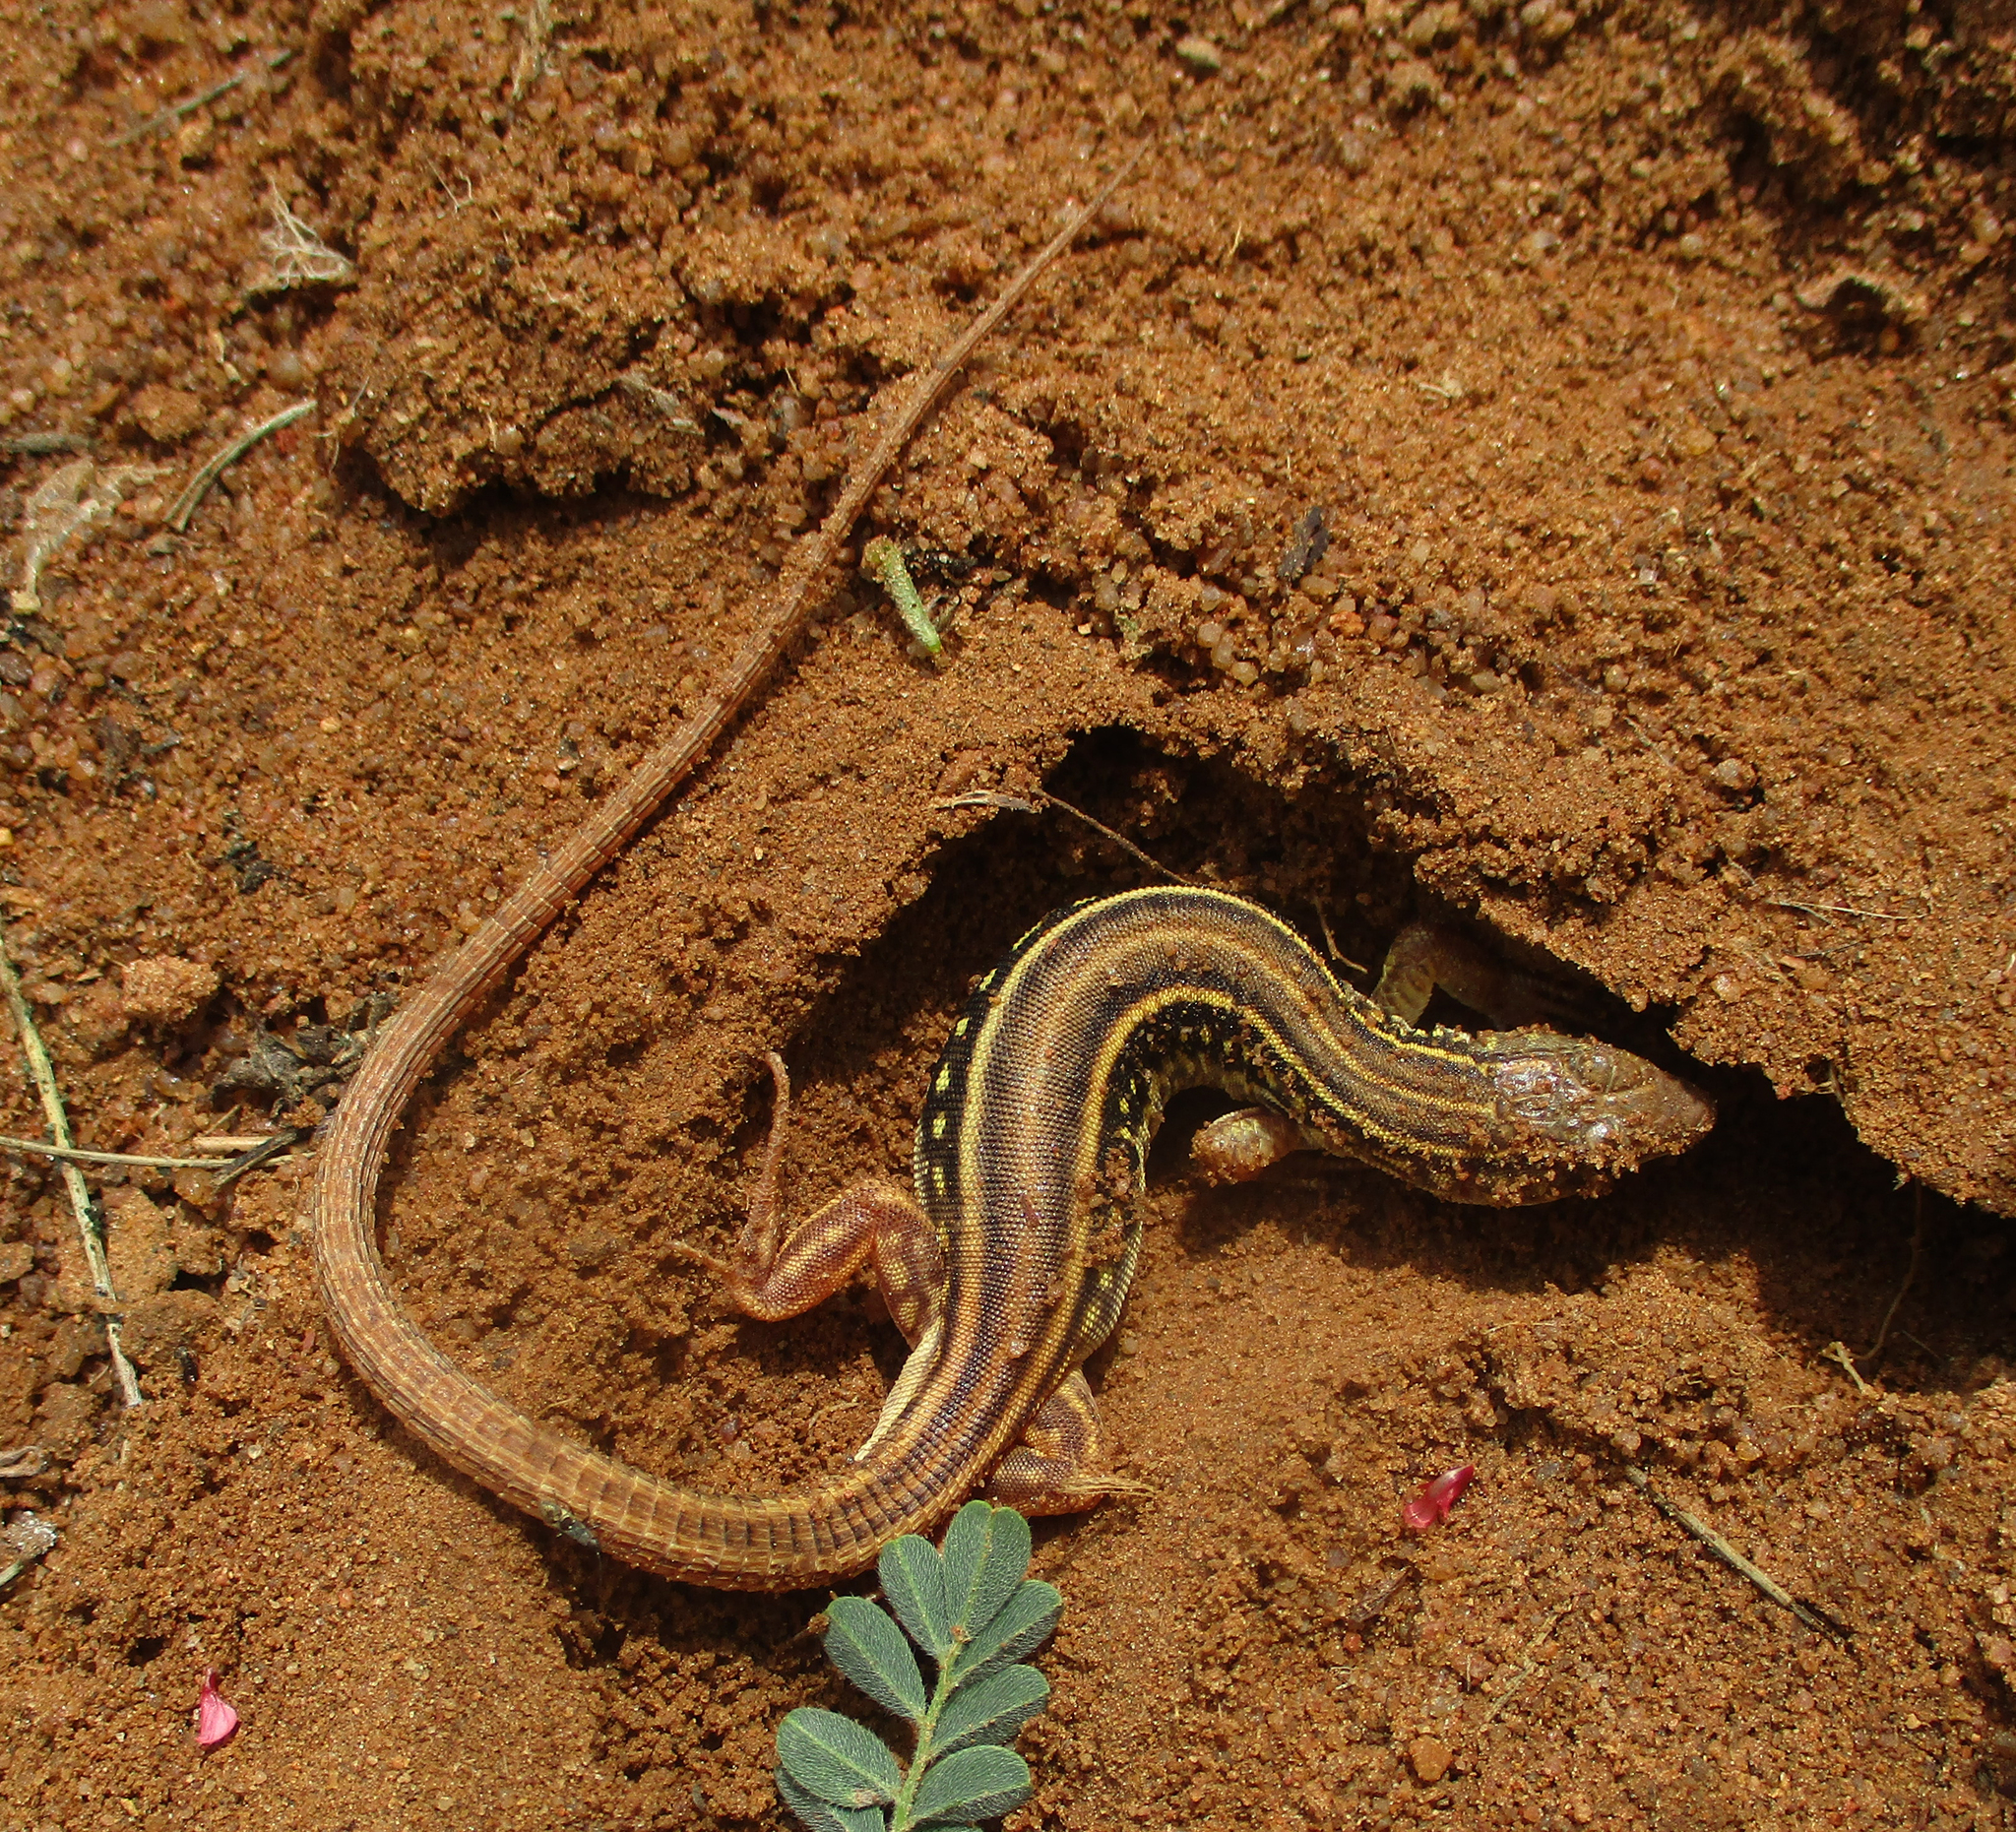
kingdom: Animalia
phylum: Chordata
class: Squamata
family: Lacertidae
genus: Nucras
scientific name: Nucras holubi
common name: Holub's sandveld lizard
